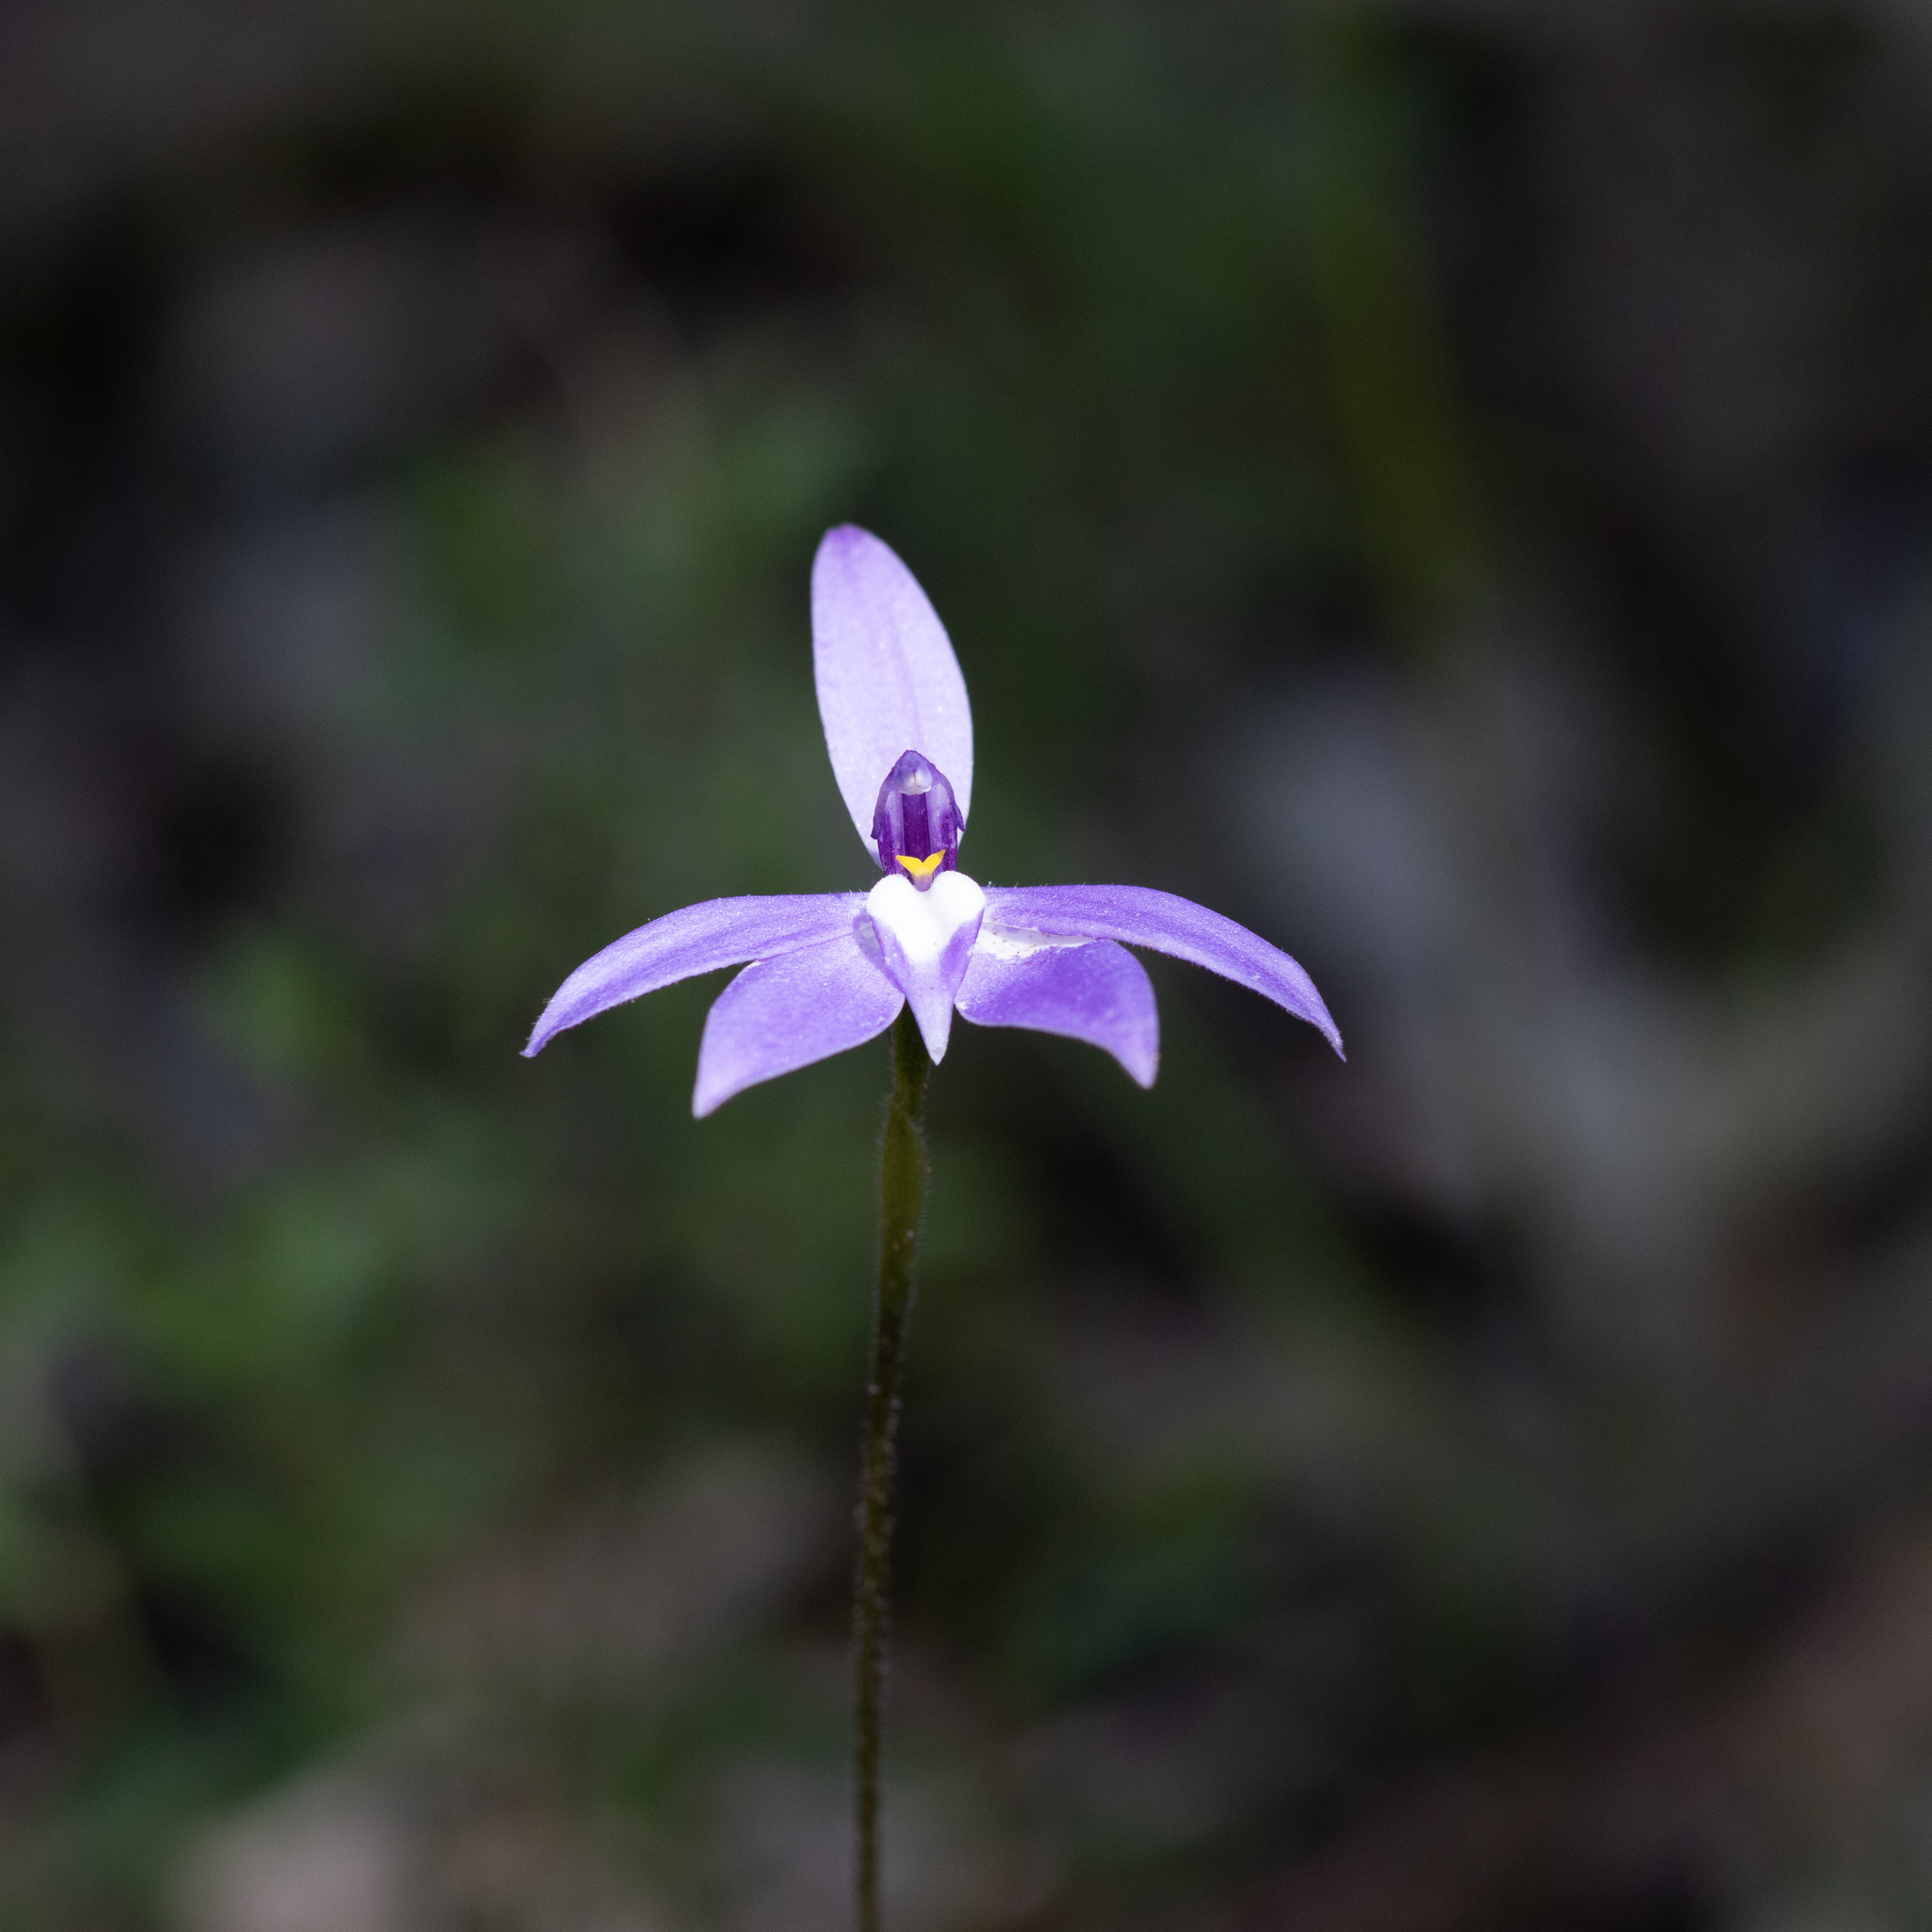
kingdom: Plantae
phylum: Tracheophyta
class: Liliopsida
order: Asparagales
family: Orchidaceae
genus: Caladenia
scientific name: Caladenia major
